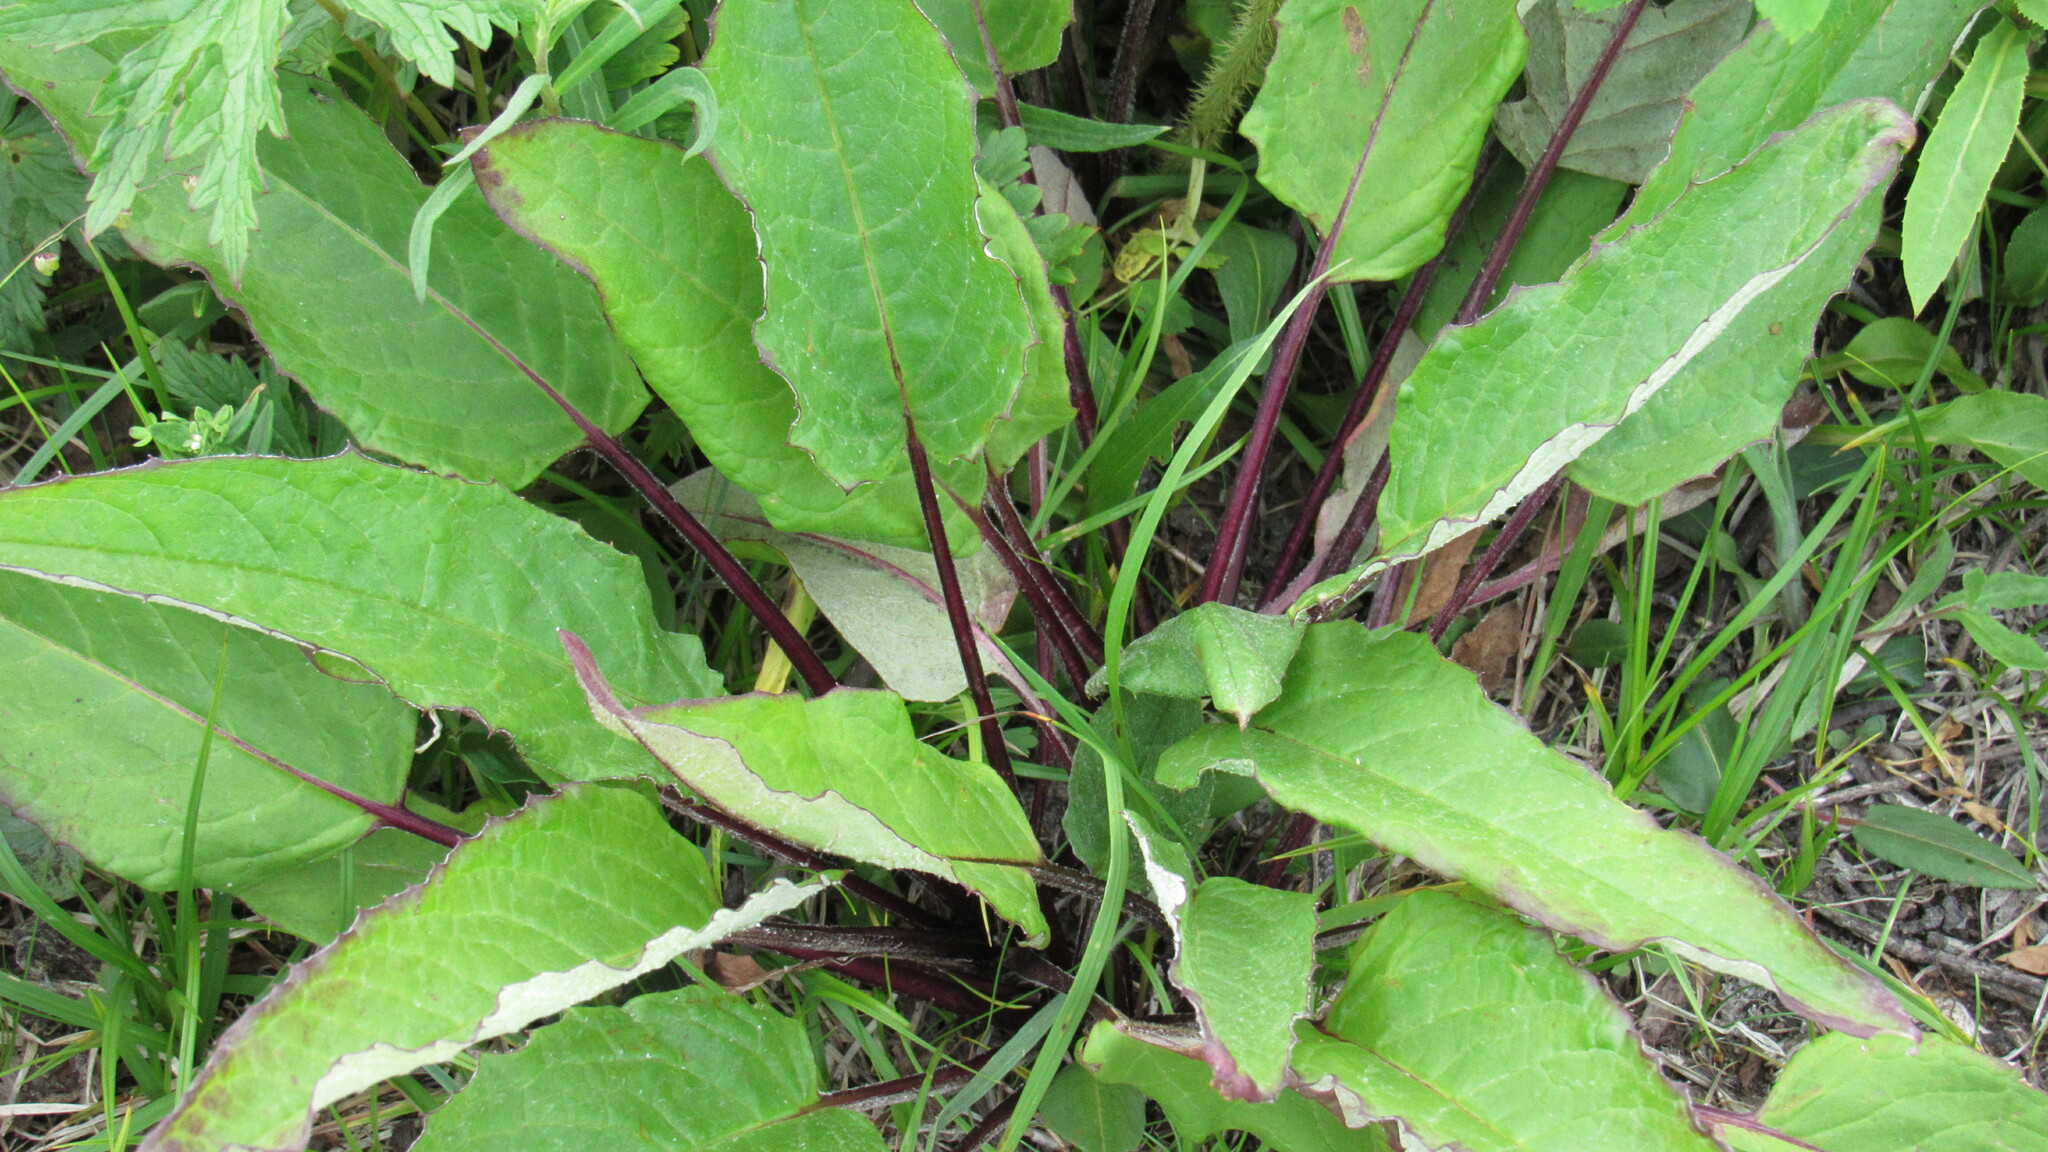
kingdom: Plantae
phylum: Tracheophyta
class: Magnoliopsida
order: Asterales
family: Asteraceae
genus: Saussurea
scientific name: Saussurea pseudotilesii
